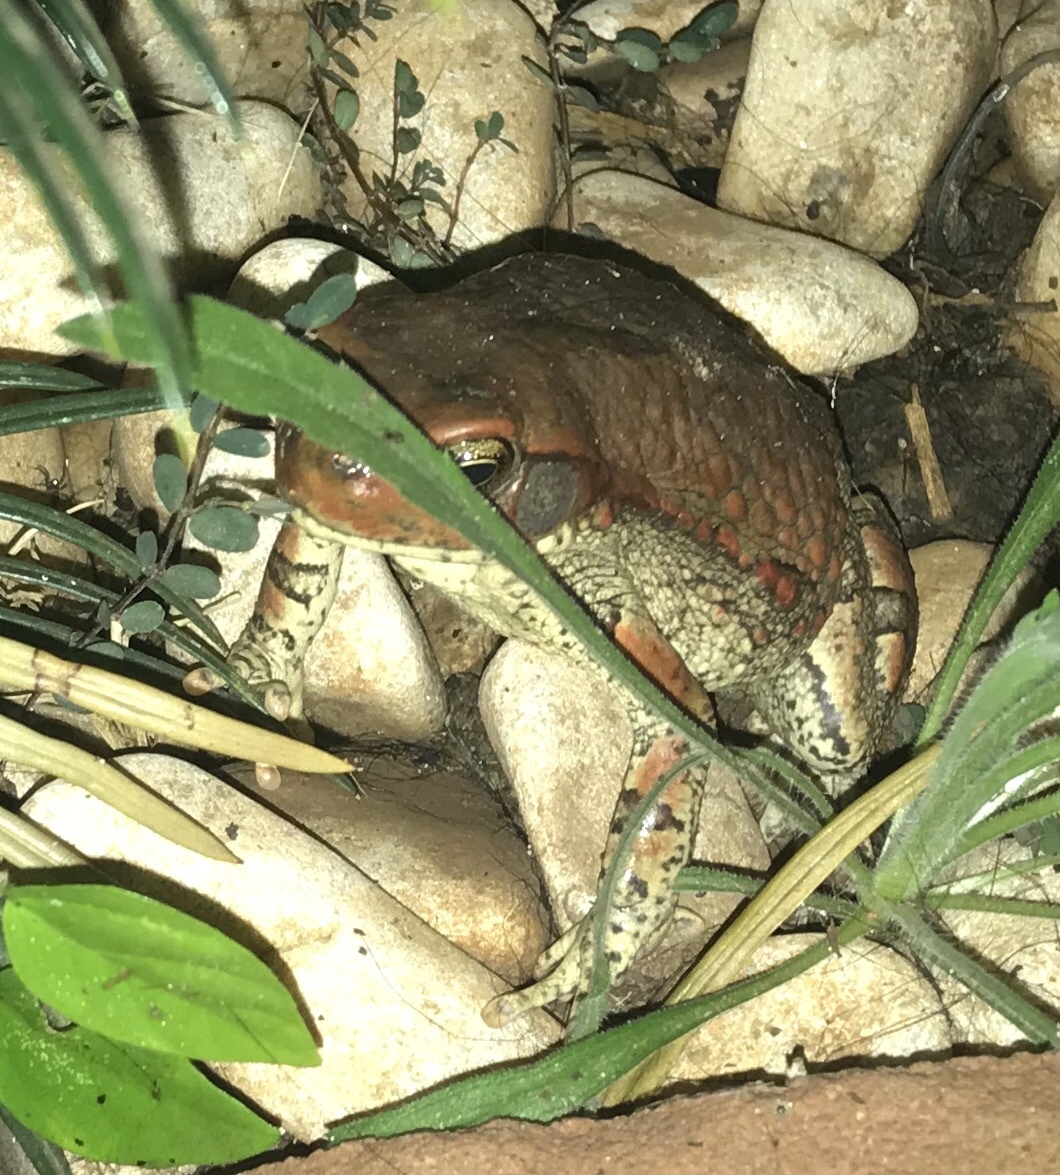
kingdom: Animalia
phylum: Chordata
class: Amphibia
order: Anura
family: Bufonidae
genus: Schismaderma
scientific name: Schismaderma carens
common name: African split-skin toad
